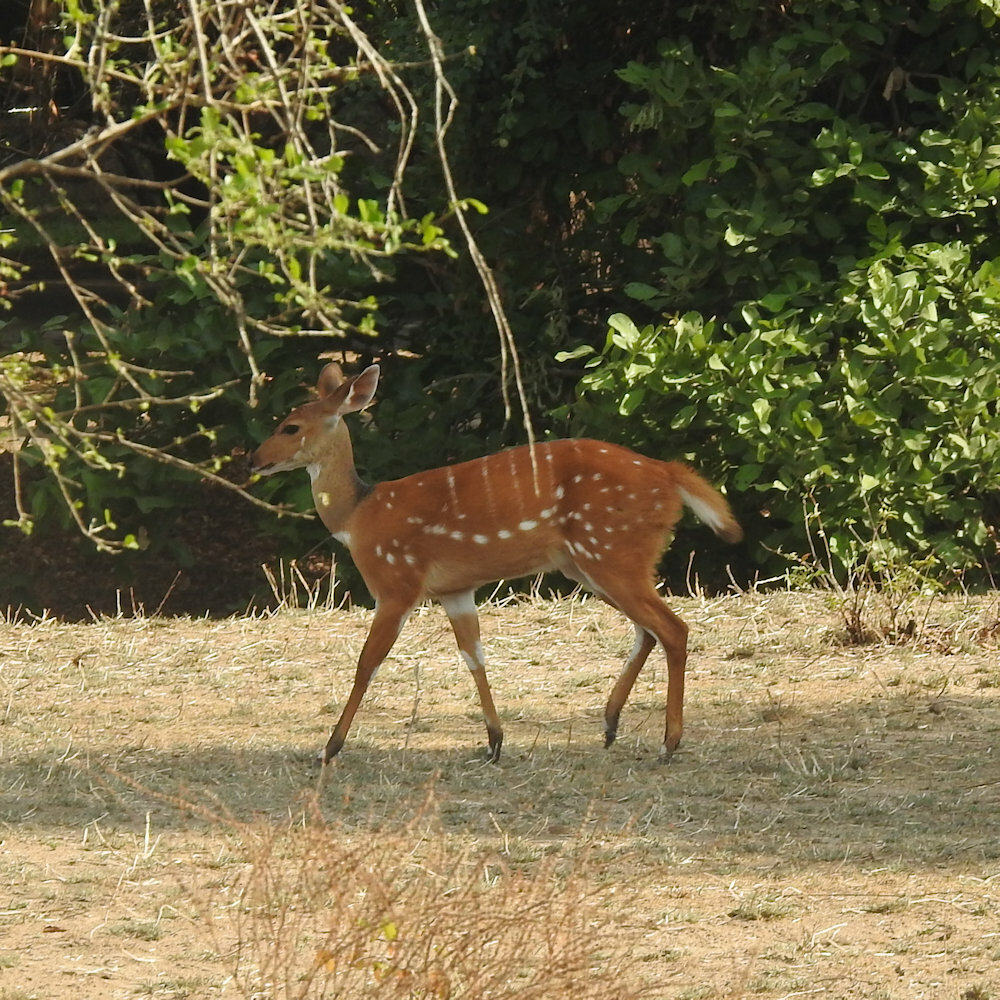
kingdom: Animalia
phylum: Chordata
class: Mammalia
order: Artiodactyla
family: Bovidae
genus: Tragelaphus
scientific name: Tragelaphus scriptus
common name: Bushbuck
